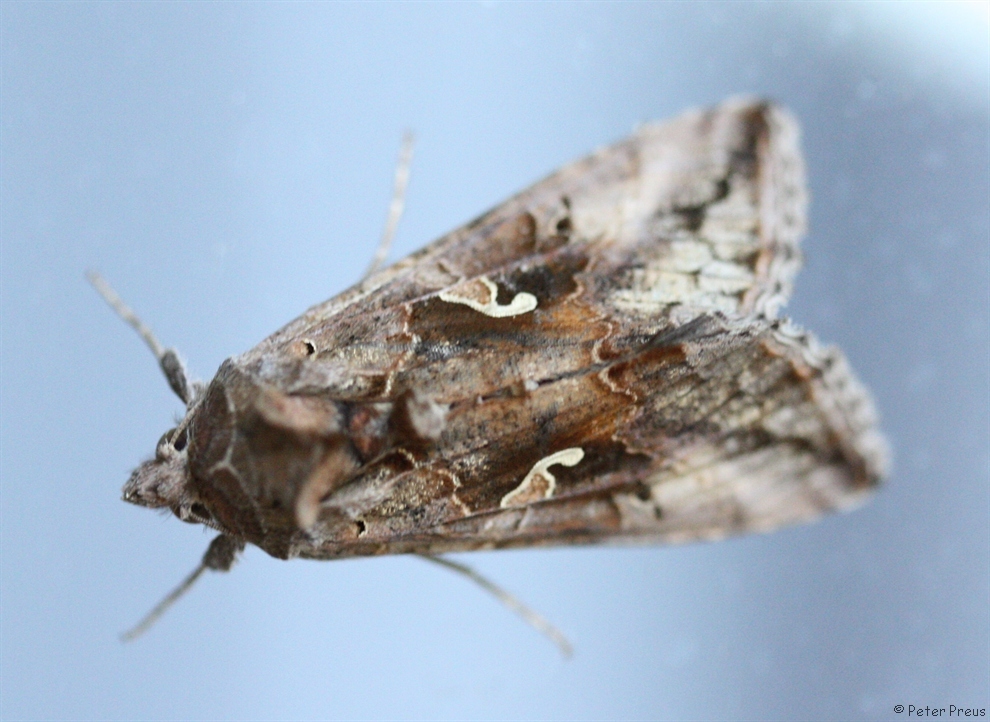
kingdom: Animalia
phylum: Arthropoda
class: Insecta
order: Lepidoptera
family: Noctuidae
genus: Autographa
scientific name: Autographa gamma
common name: Silver y
